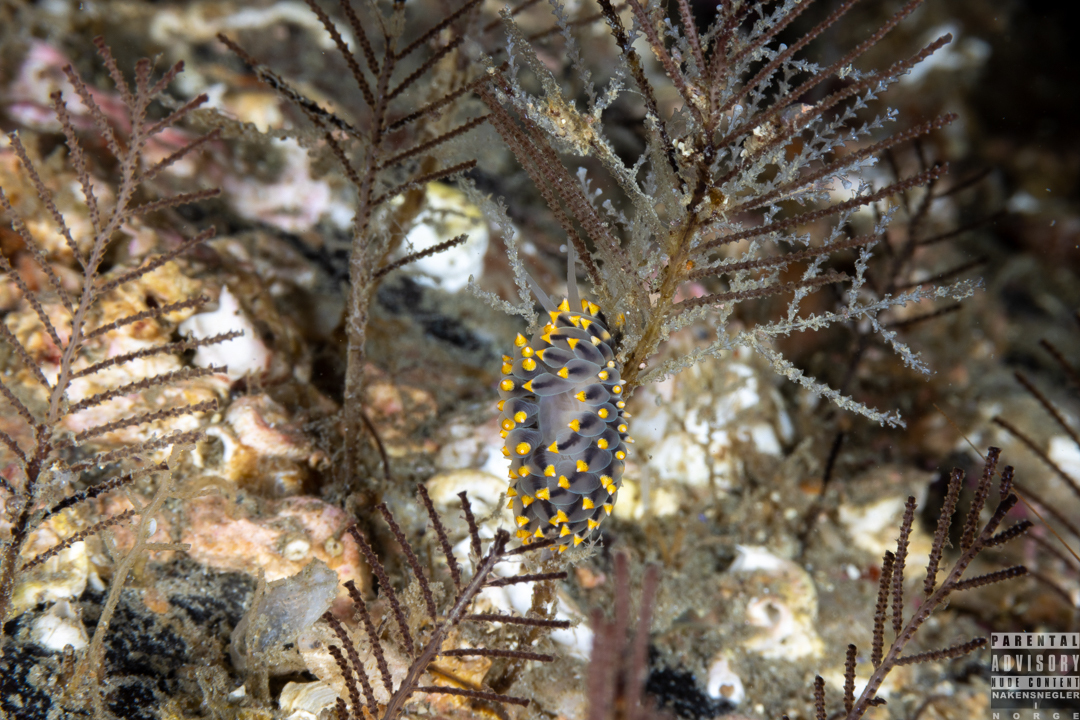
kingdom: Animalia
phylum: Mollusca
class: Gastropoda
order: Nudibranchia
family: Eubranchidae
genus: Eubranchus
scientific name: Eubranchus tricolor
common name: Painted balloon aeolis
